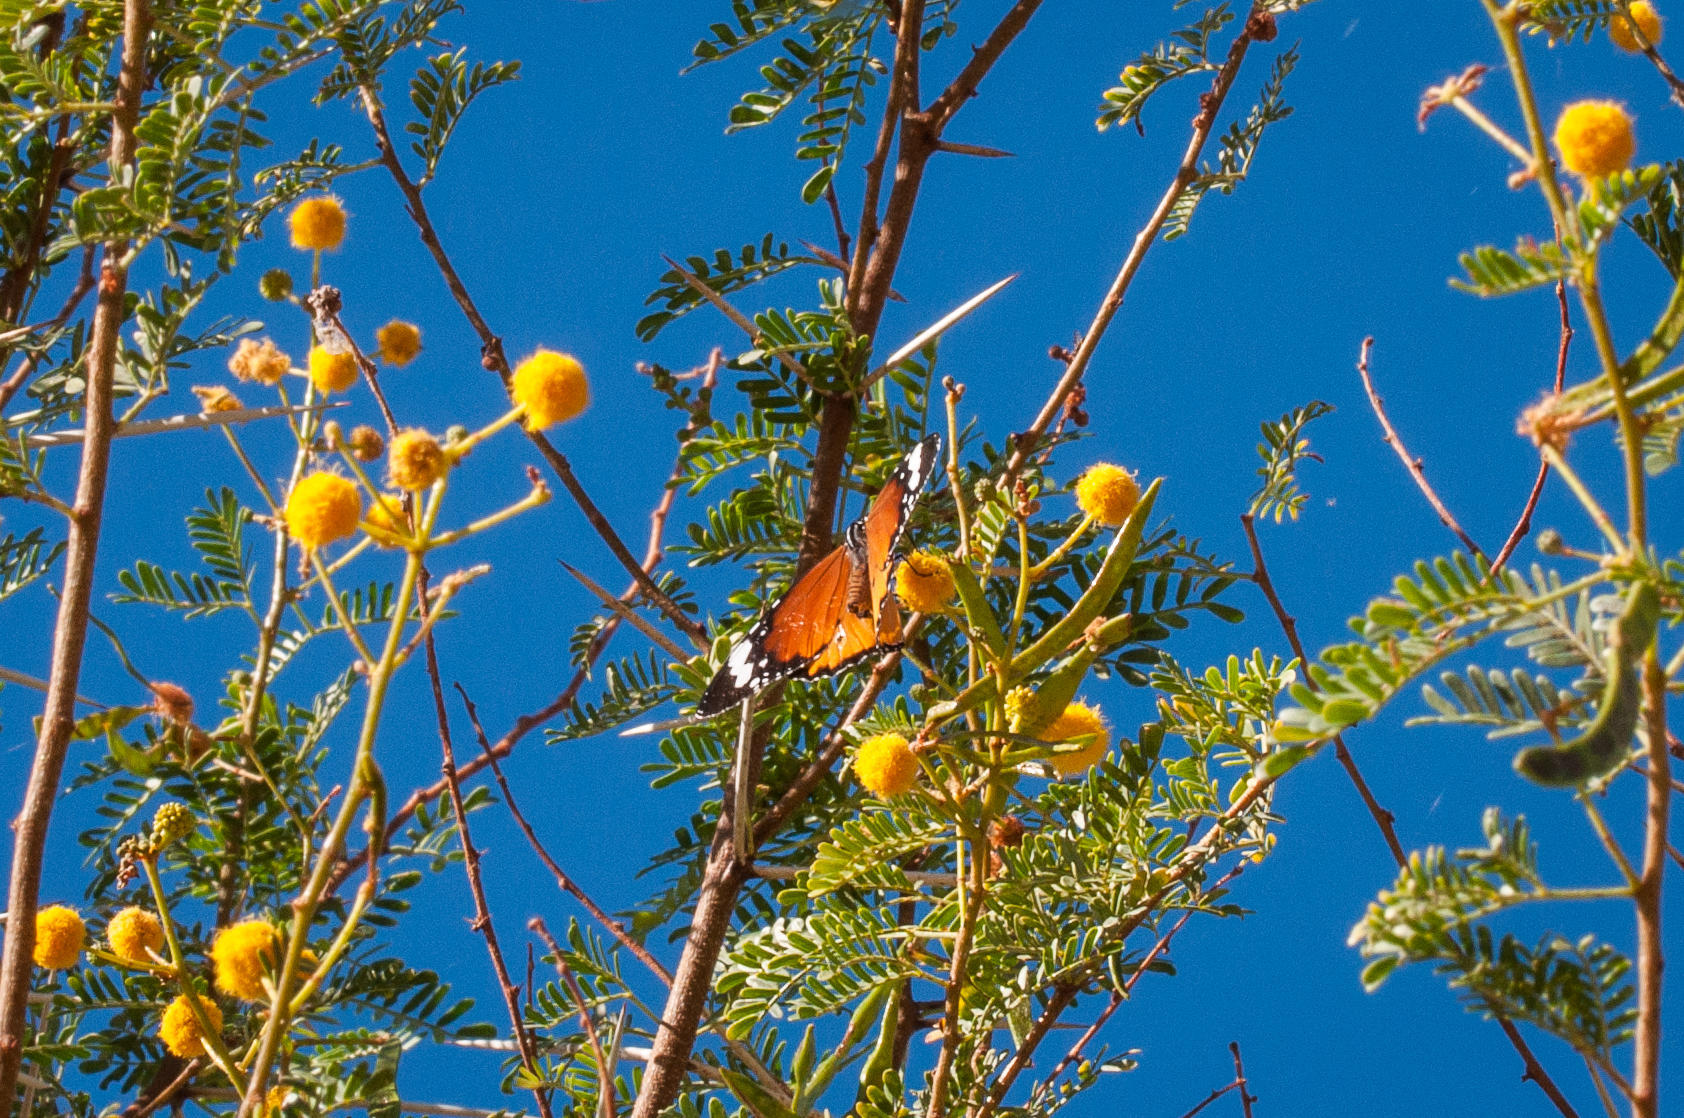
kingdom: Plantae
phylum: Tracheophyta
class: Magnoliopsida
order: Fabales
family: Fabaceae
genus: Vachellia
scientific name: Vachellia karroo
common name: Sweet thorn
